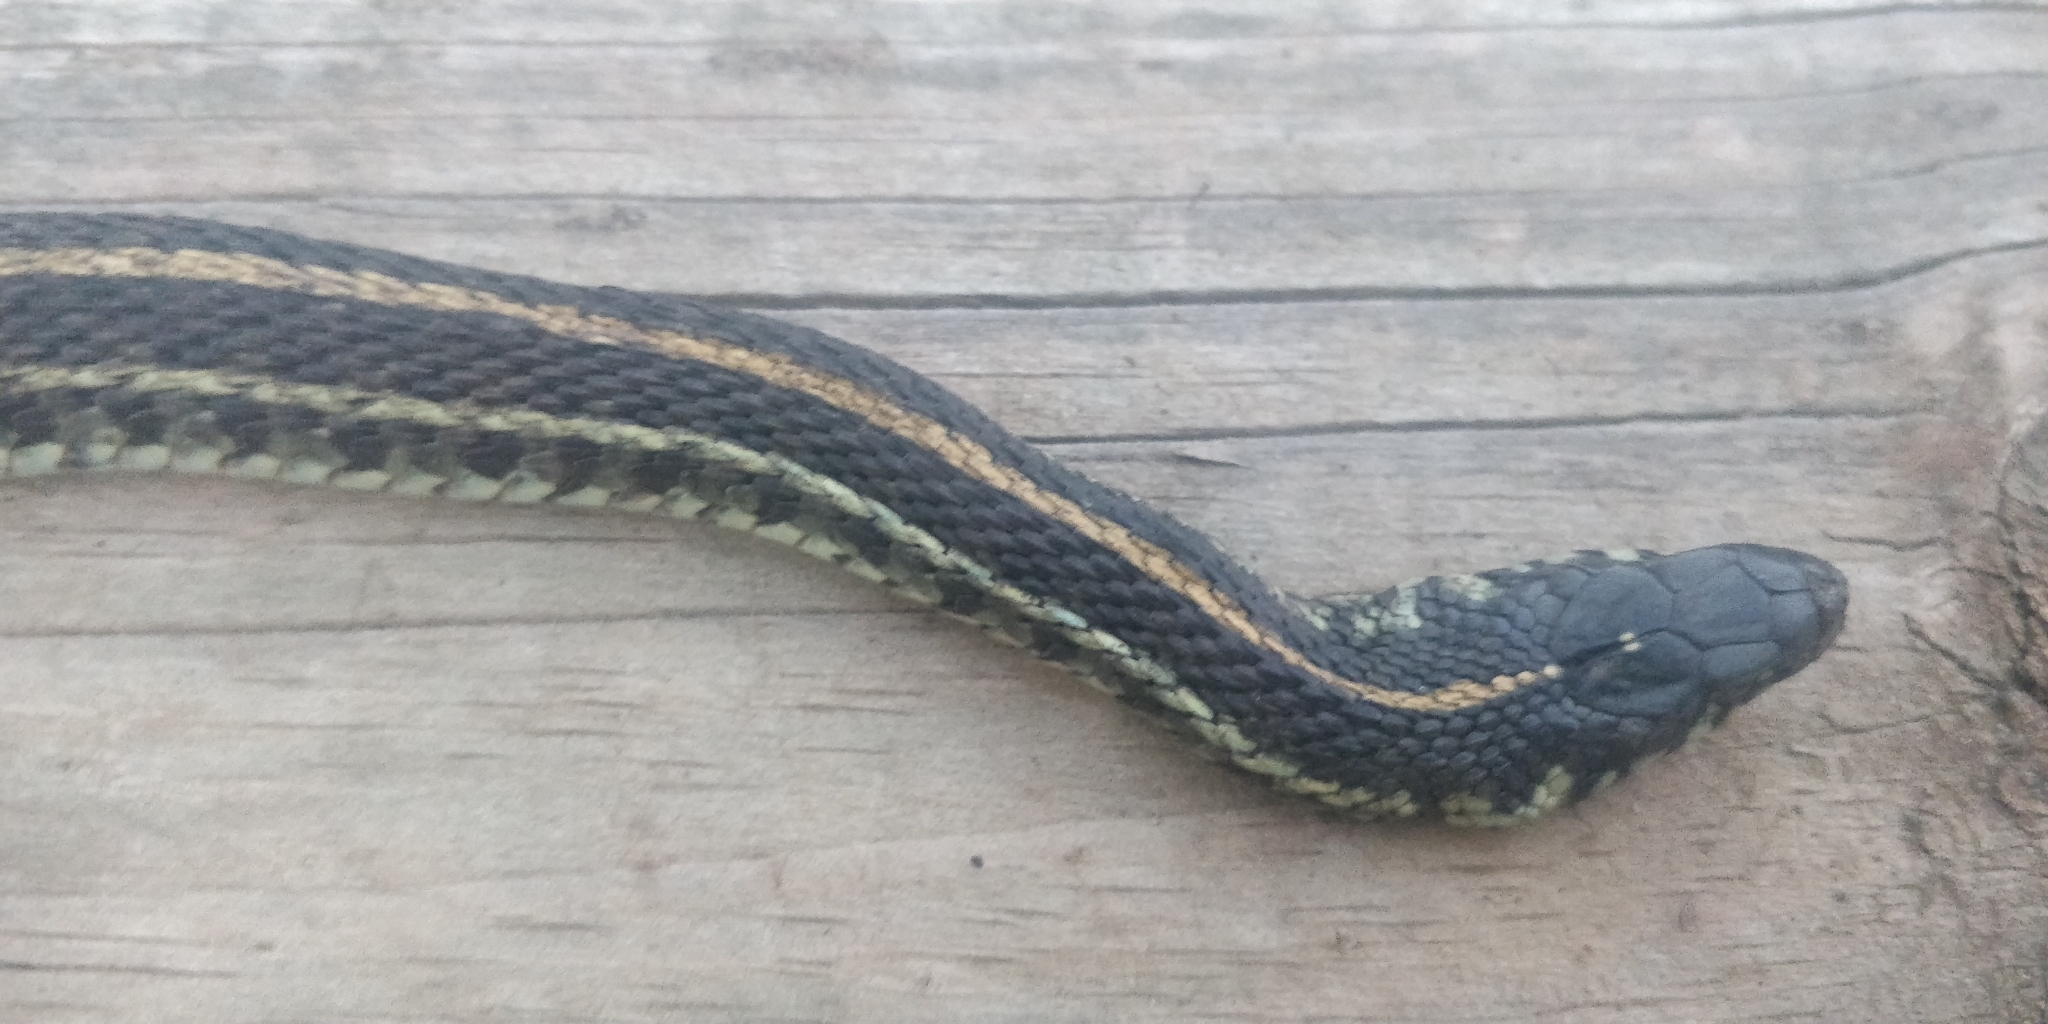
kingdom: Animalia
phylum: Chordata
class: Squamata
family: Colubridae
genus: Thamnophis
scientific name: Thamnophis radix
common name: Plains garter snake
